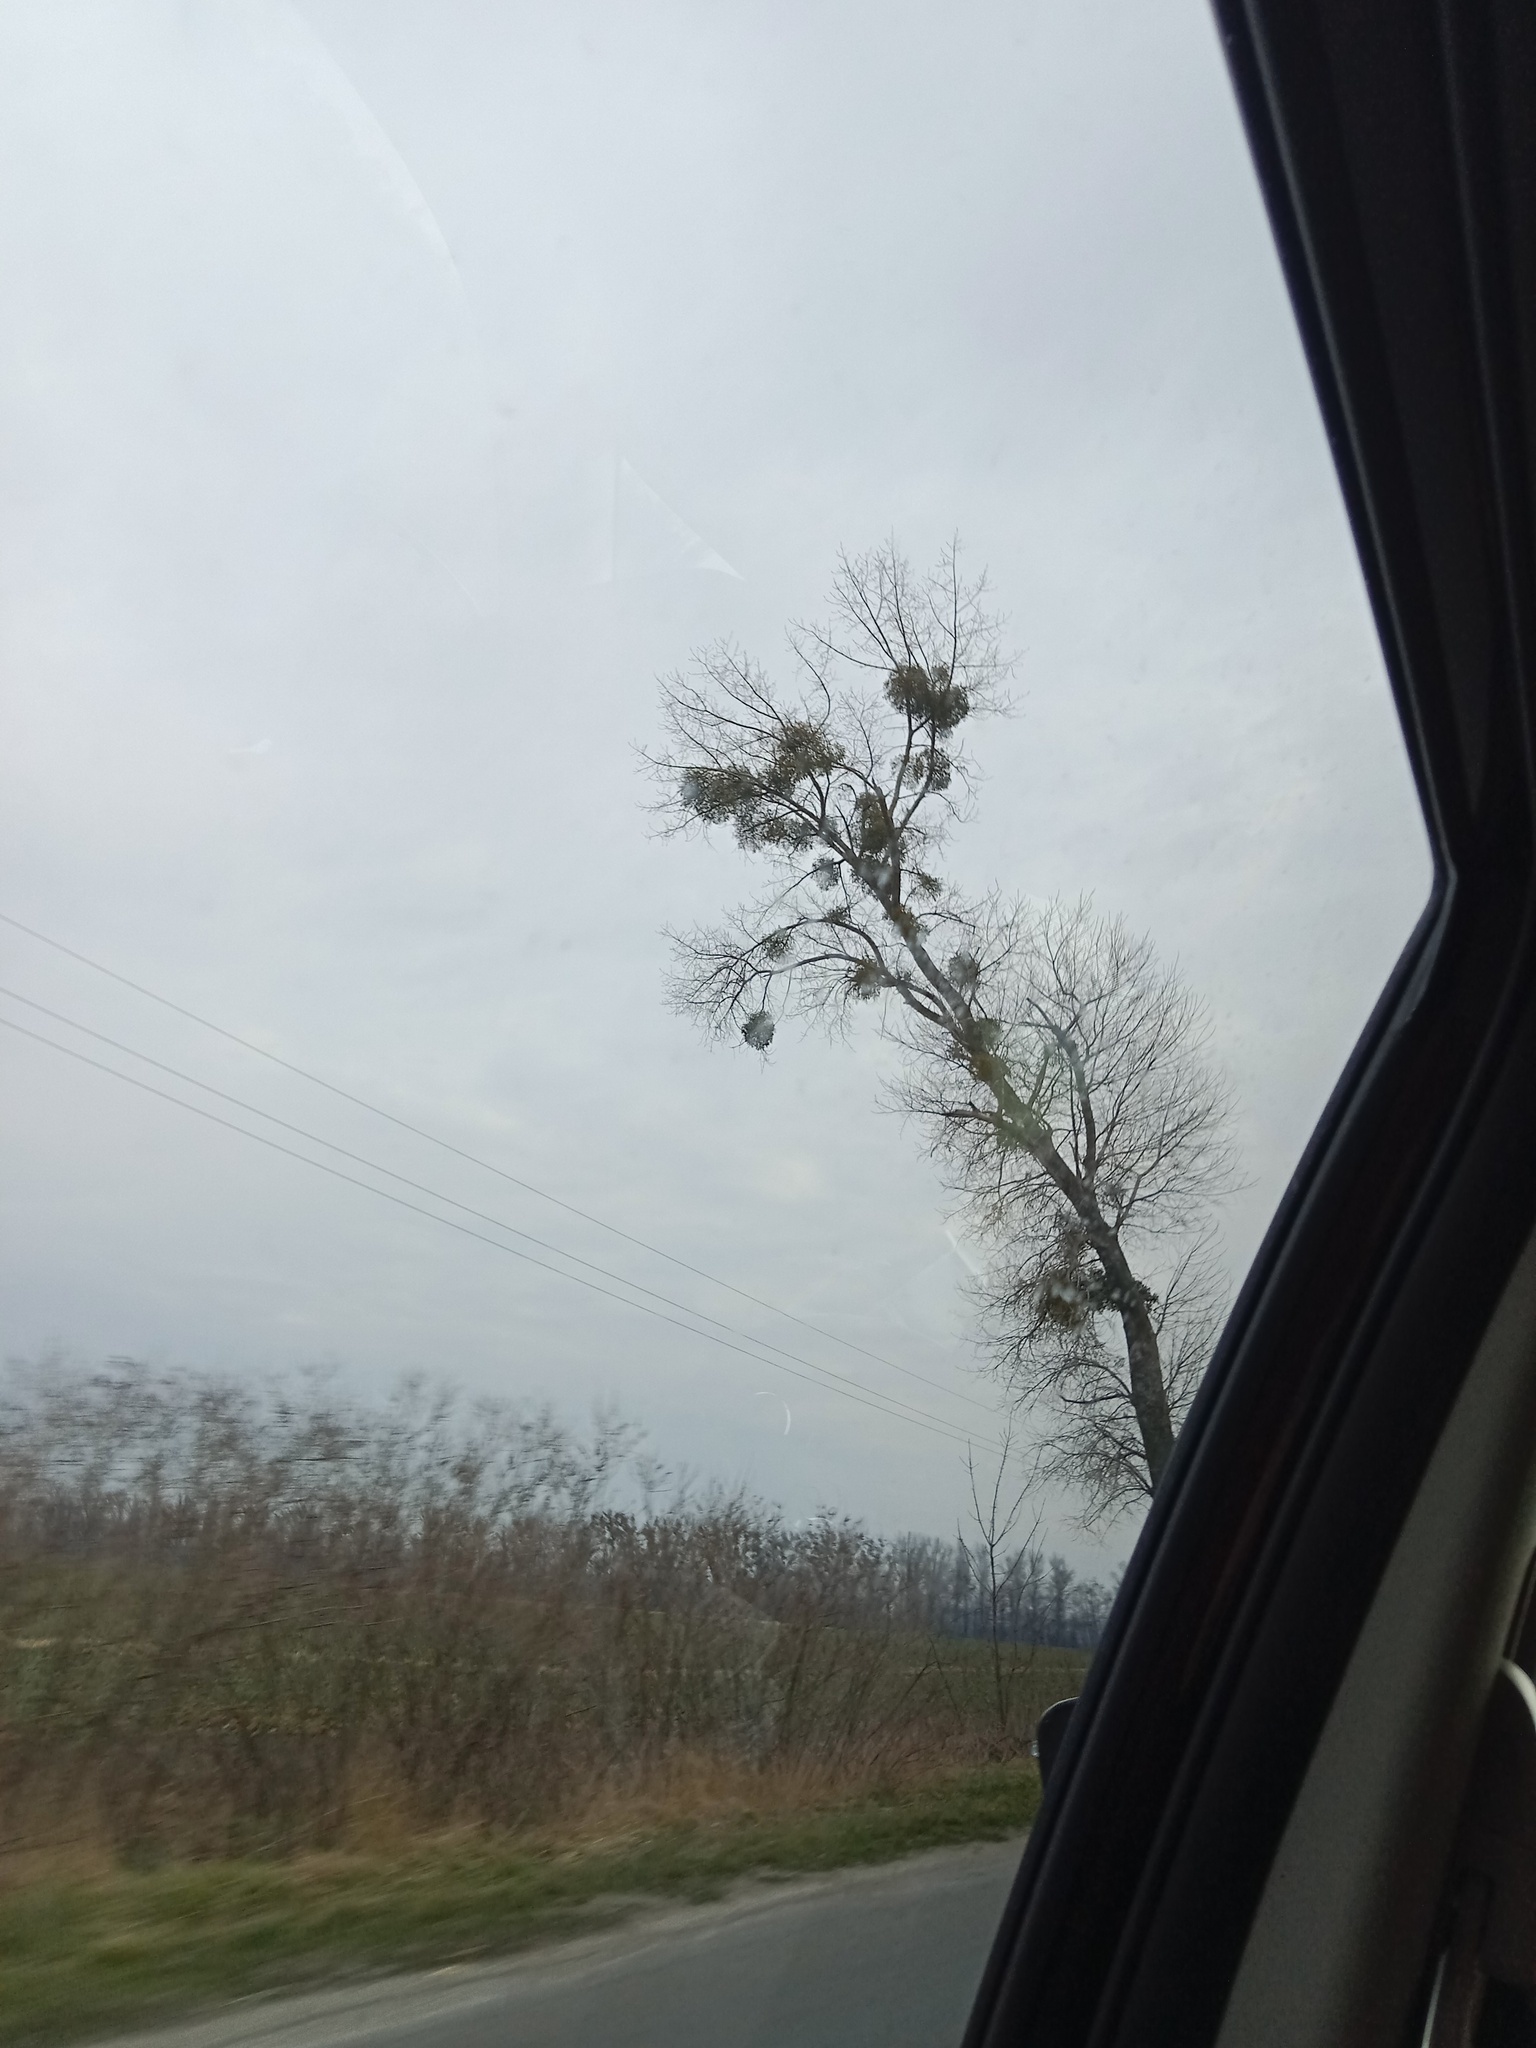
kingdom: Plantae
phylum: Tracheophyta
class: Magnoliopsida
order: Santalales
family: Viscaceae
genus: Viscum
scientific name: Viscum album
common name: Mistletoe
